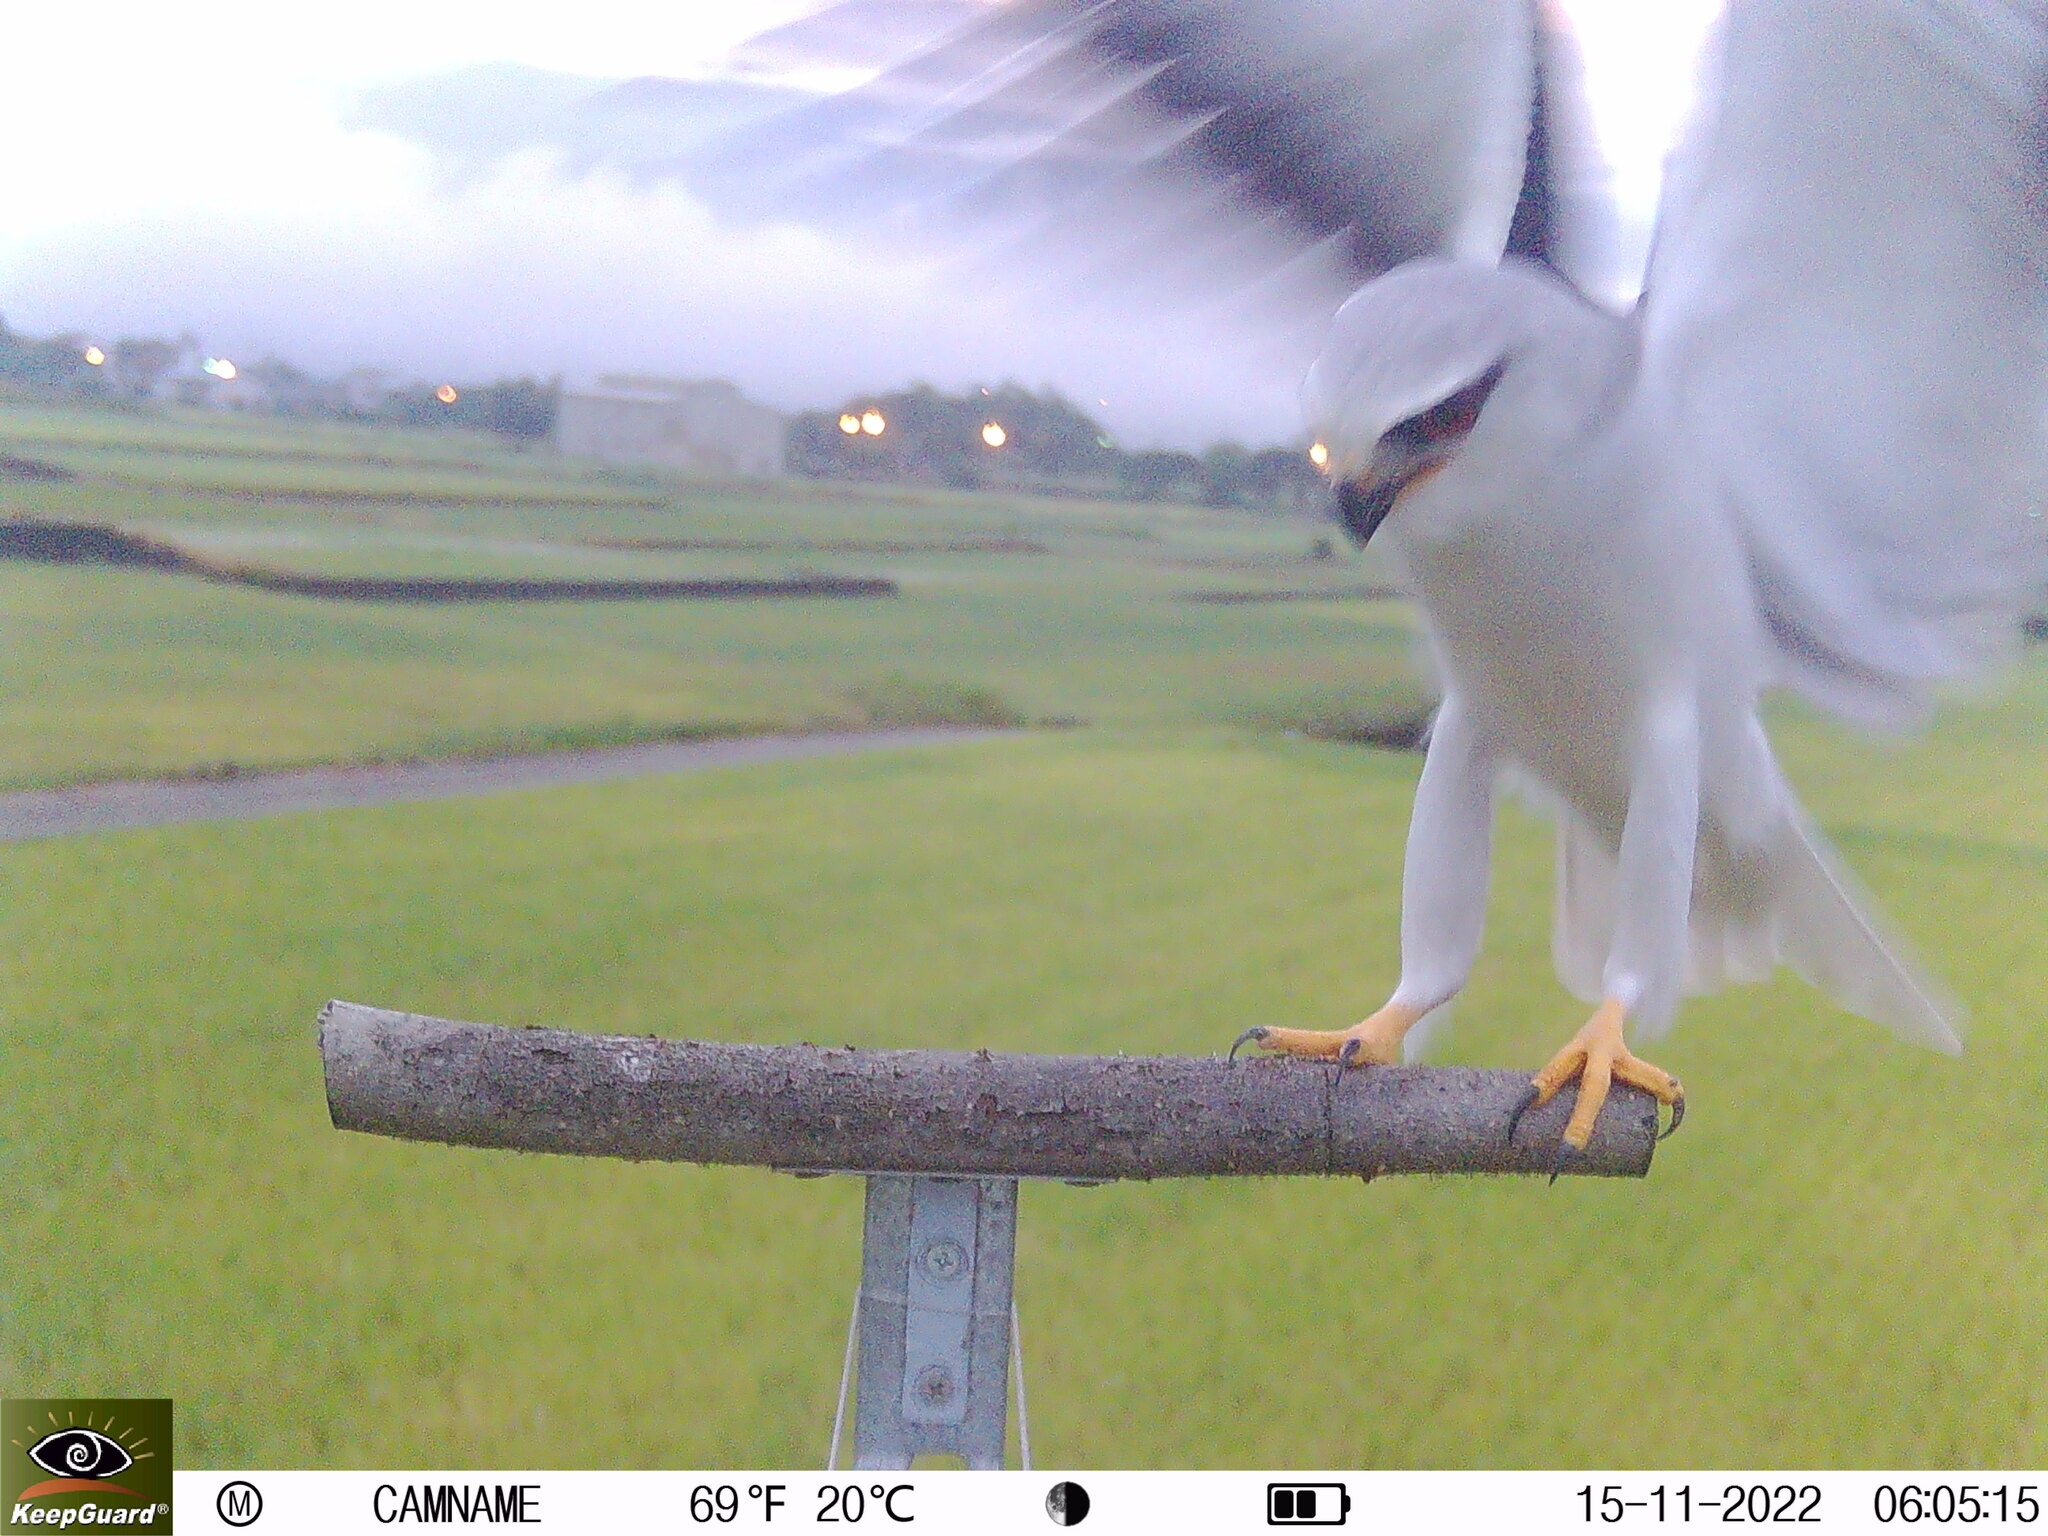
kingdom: Animalia
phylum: Chordata
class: Aves
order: Accipitriformes
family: Accipitridae
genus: Elanus
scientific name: Elanus caeruleus
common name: Black-winged kite
